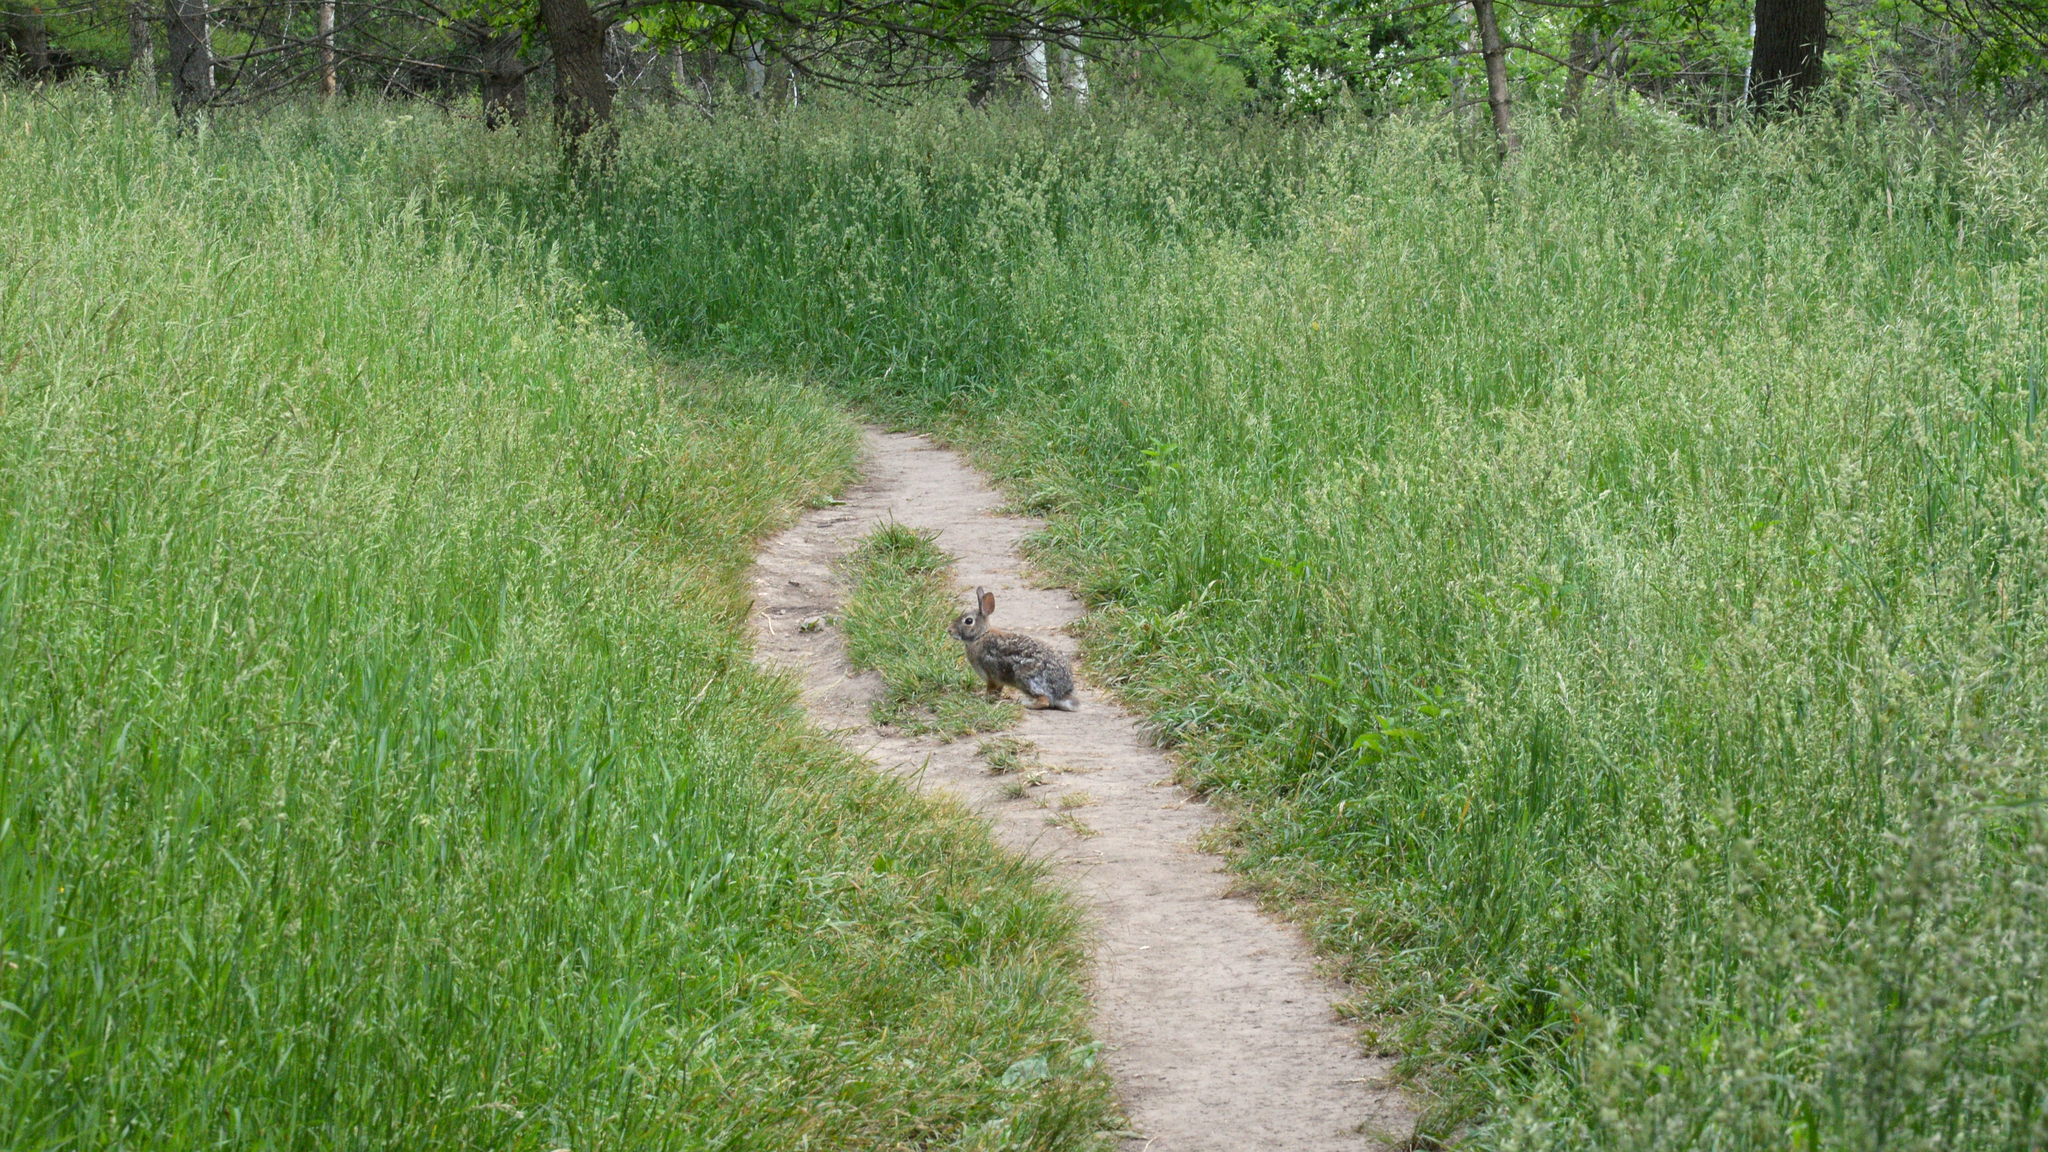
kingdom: Animalia
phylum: Chordata
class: Mammalia
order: Lagomorpha
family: Leporidae
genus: Sylvilagus
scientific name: Sylvilagus floridanus
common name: Eastern cottontail
